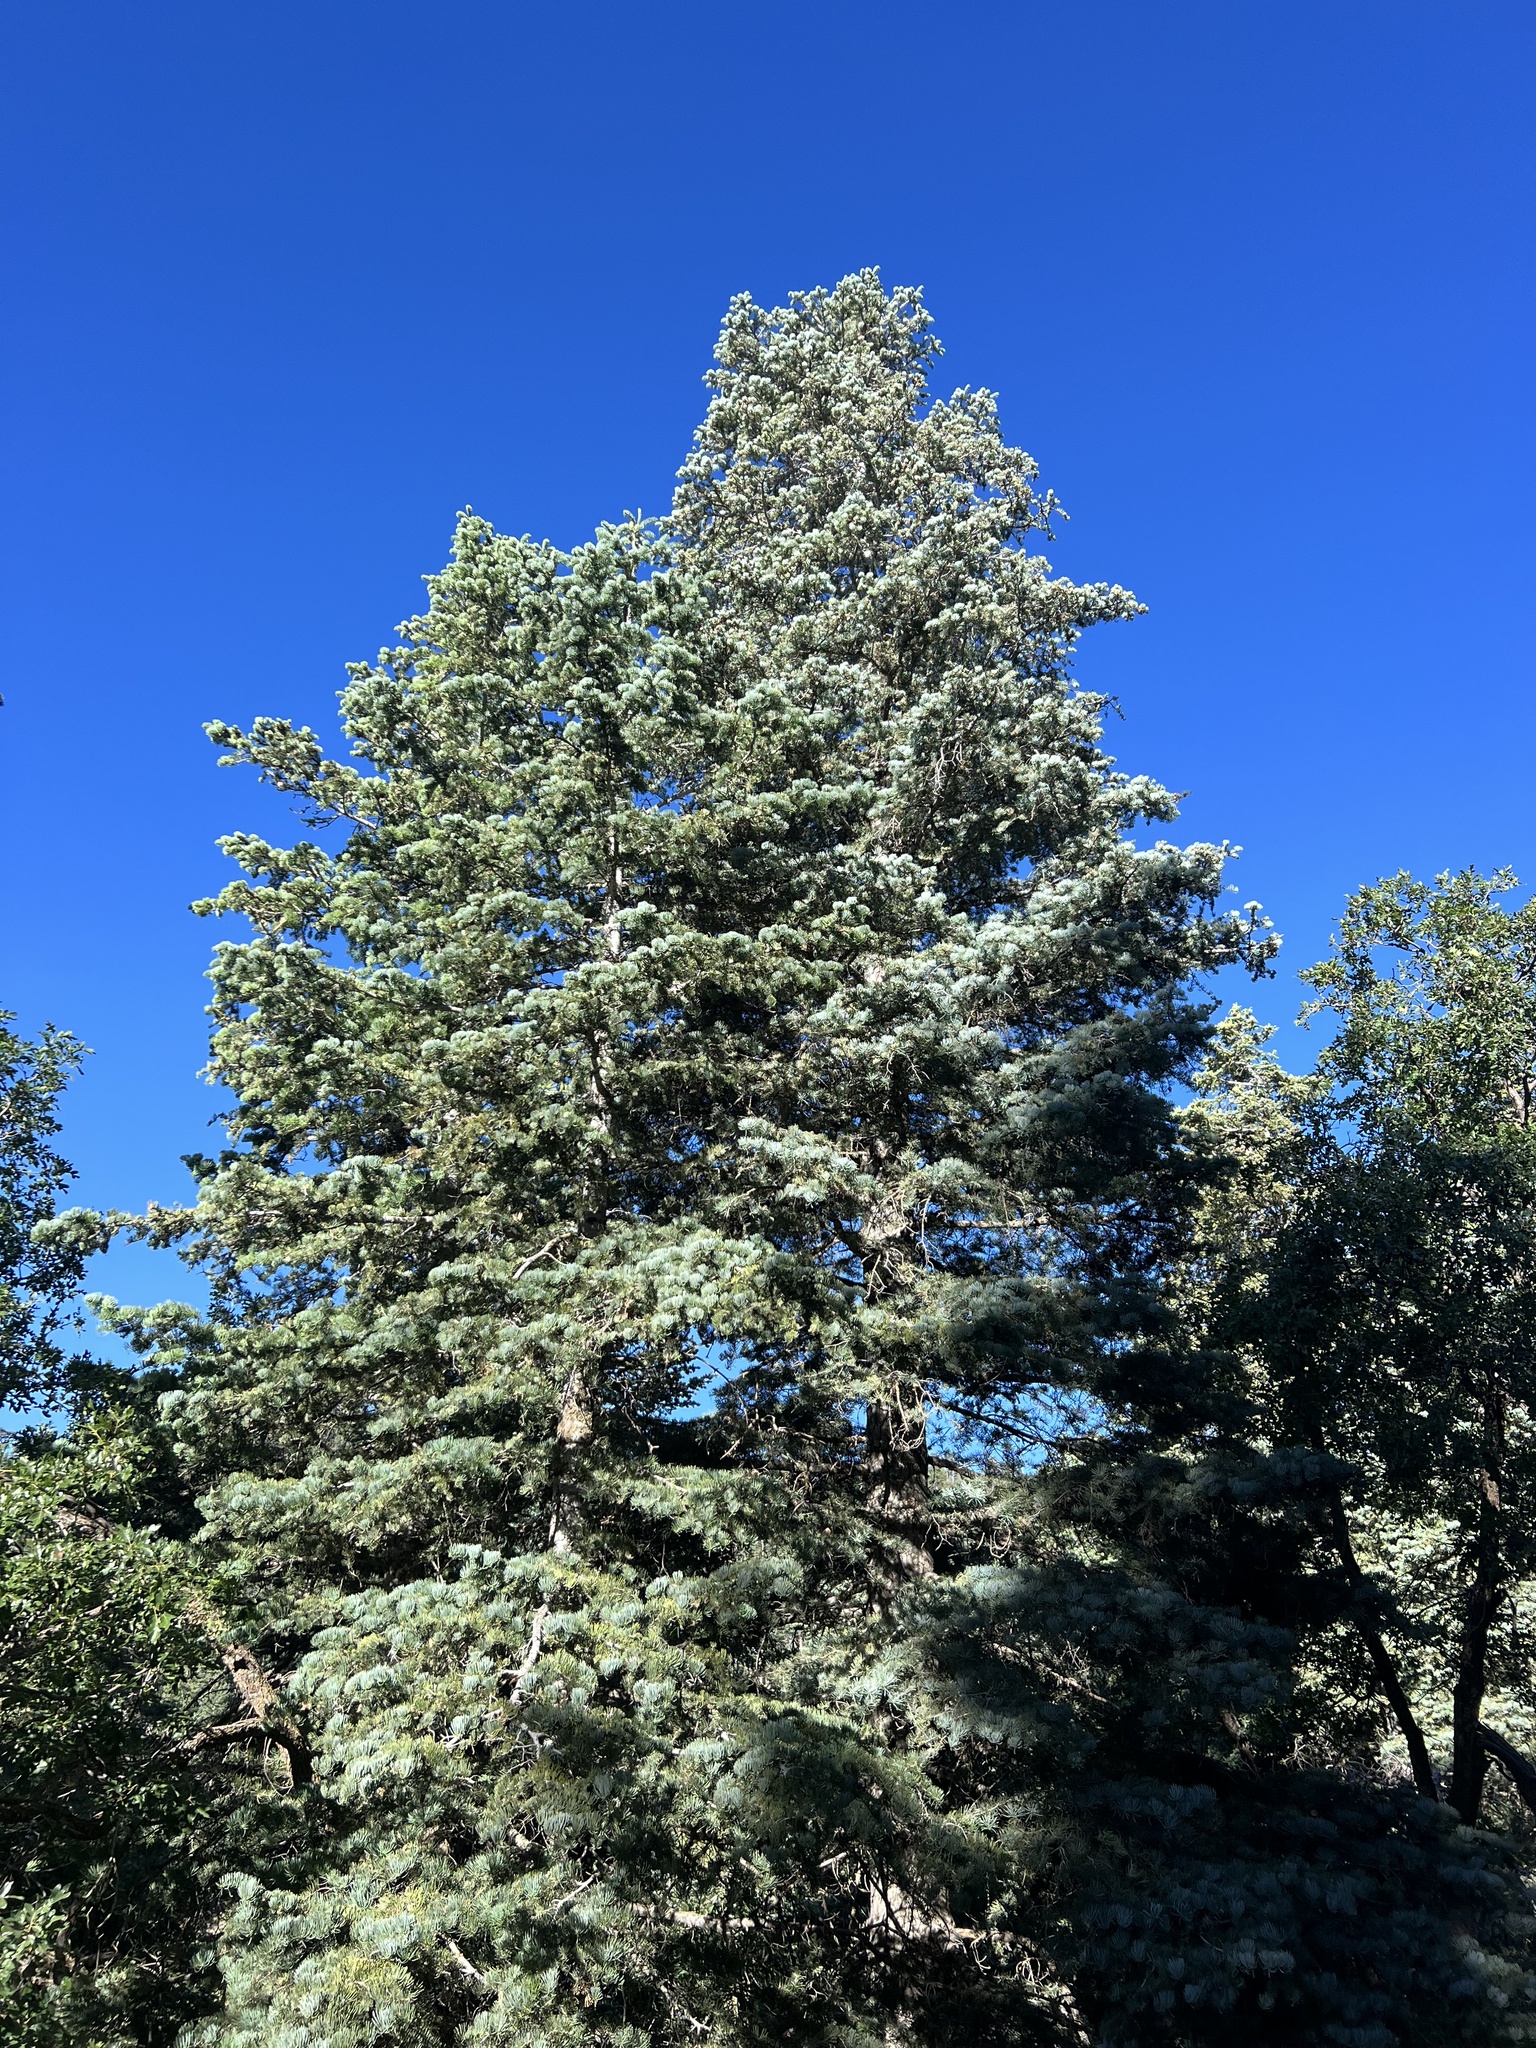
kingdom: Plantae
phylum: Tracheophyta
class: Pinopsida
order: Pinales
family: Pinaceae
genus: Abies
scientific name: Abies concolor
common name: Colorado fir
